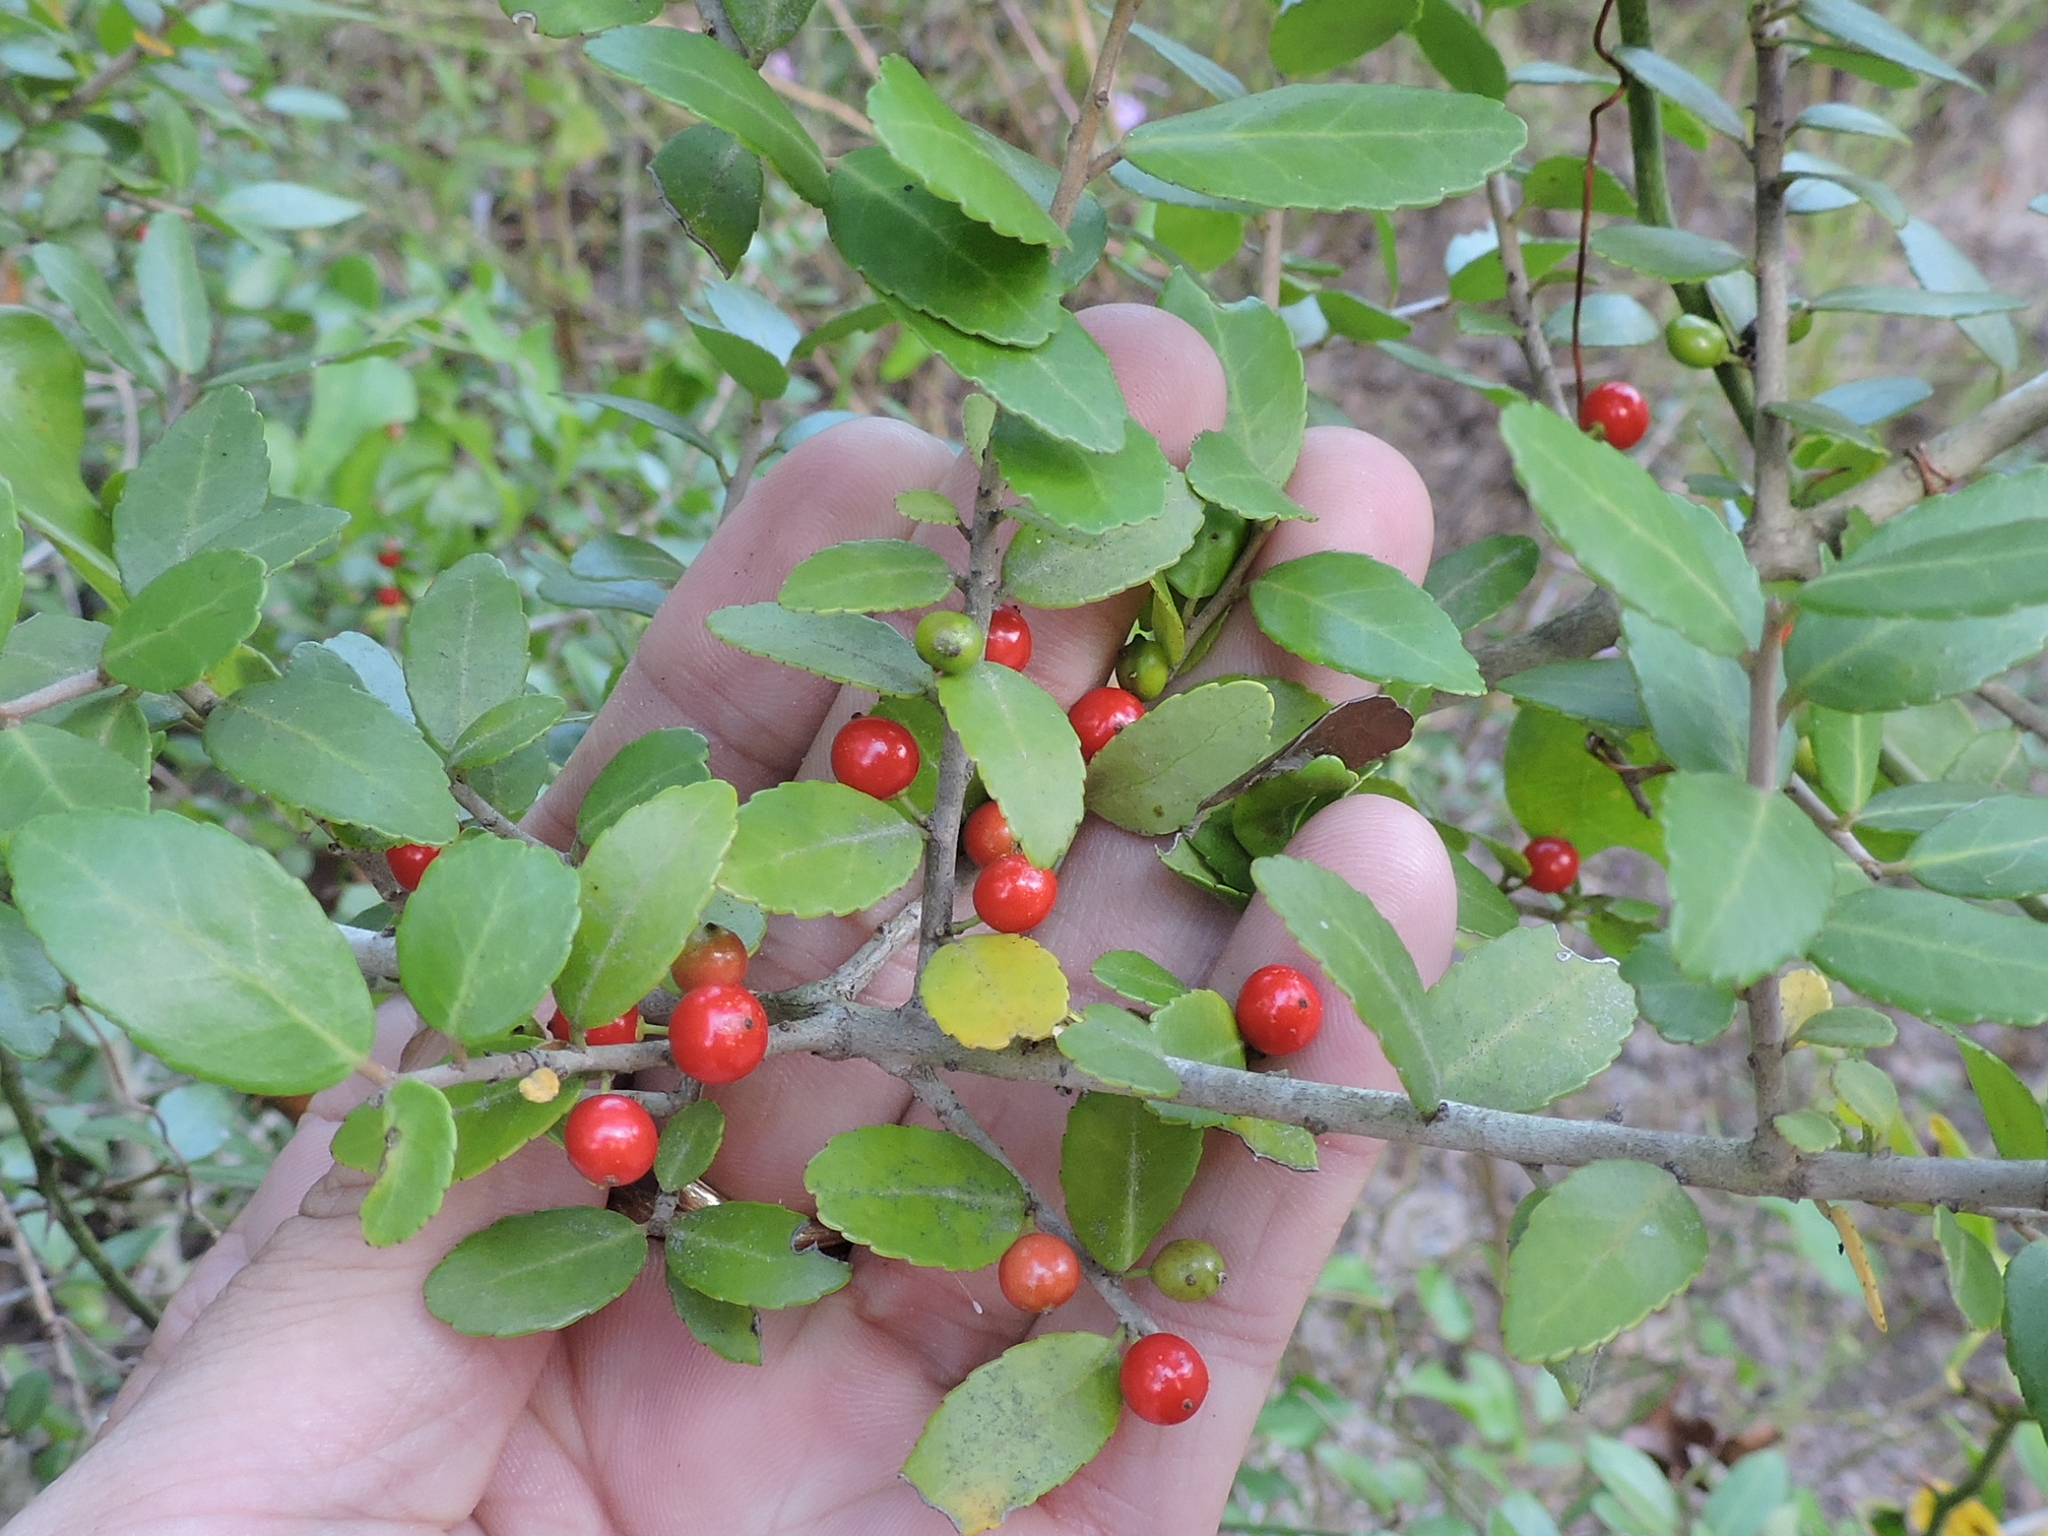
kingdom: Plantae
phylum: Tracheophyta
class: Magnoliopsida
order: Aquifoliales
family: Aquifoliaceae
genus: Ilex
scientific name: Ilex vomitoria
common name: Yaupon holly
